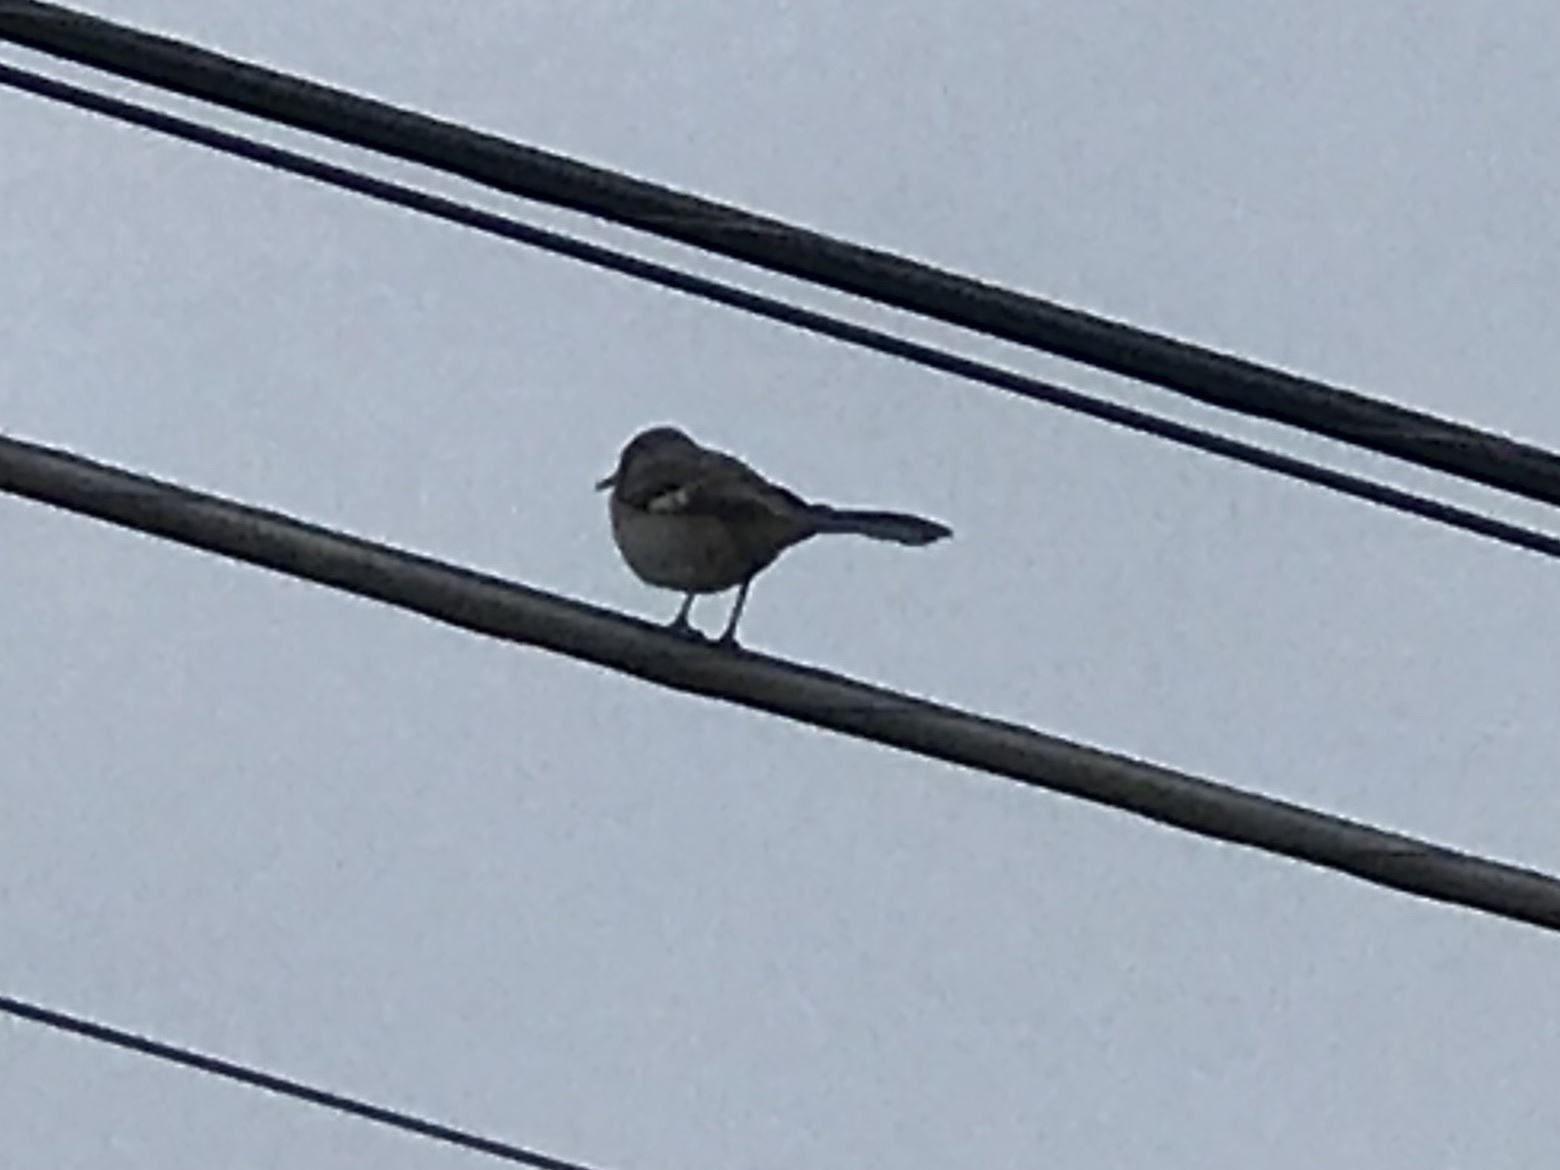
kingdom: Animalia
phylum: Chordata
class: Aves
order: Passeriformes
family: Mimidae
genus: Mimus
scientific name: Mimus polyglottos
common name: Northern mockingbird
